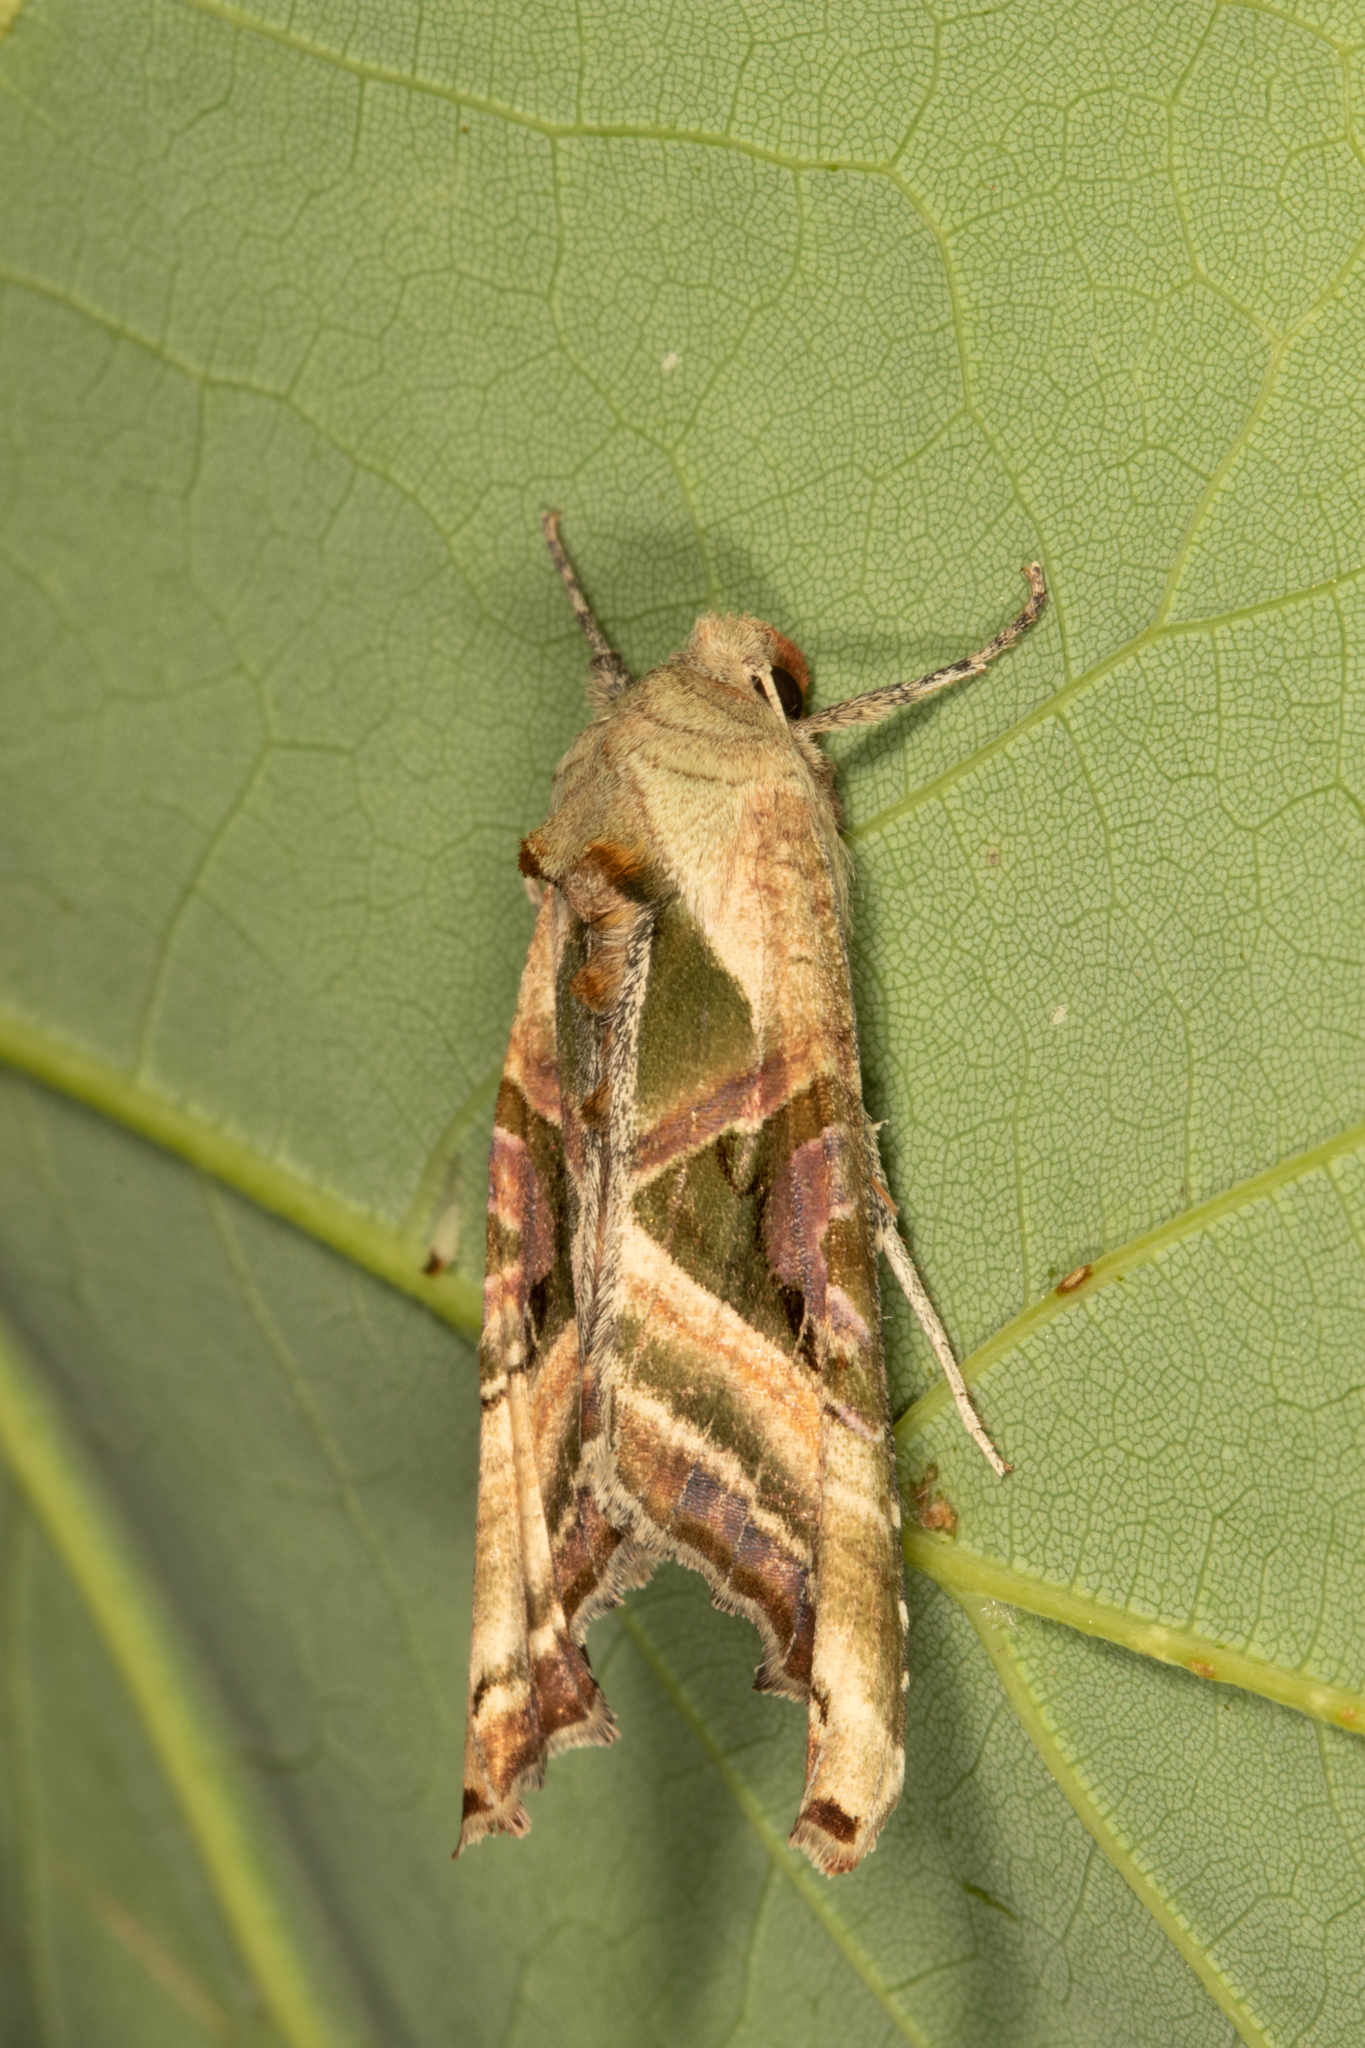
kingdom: Animalia
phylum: Arthropoda
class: Insecta
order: Lepidoptera
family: Noctuidae
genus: Phlogophora
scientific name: Phlogophora iris
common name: Olive angle shades
